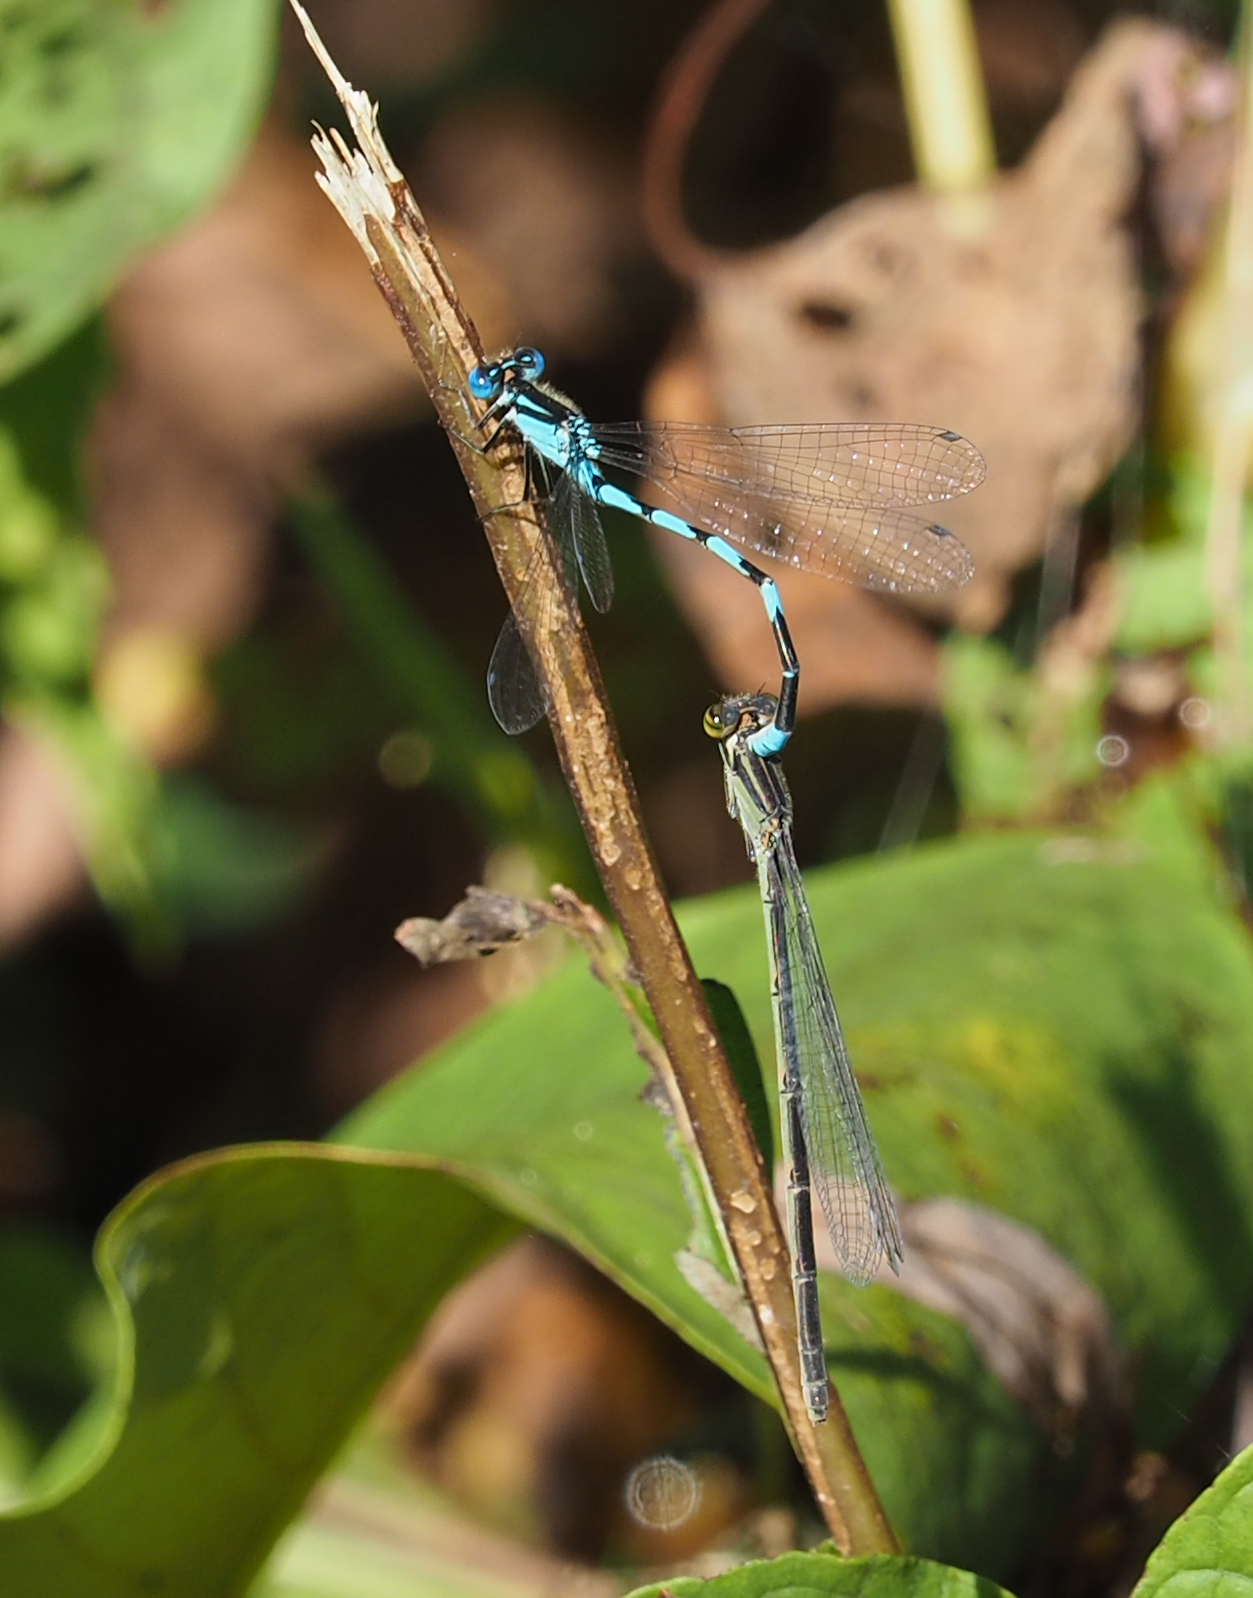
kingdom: Animalia
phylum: Arthropoda
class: Insecta
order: Odonata
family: Coenagrionidae
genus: Enallagma
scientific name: Enallagma durum
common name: Big bluet
